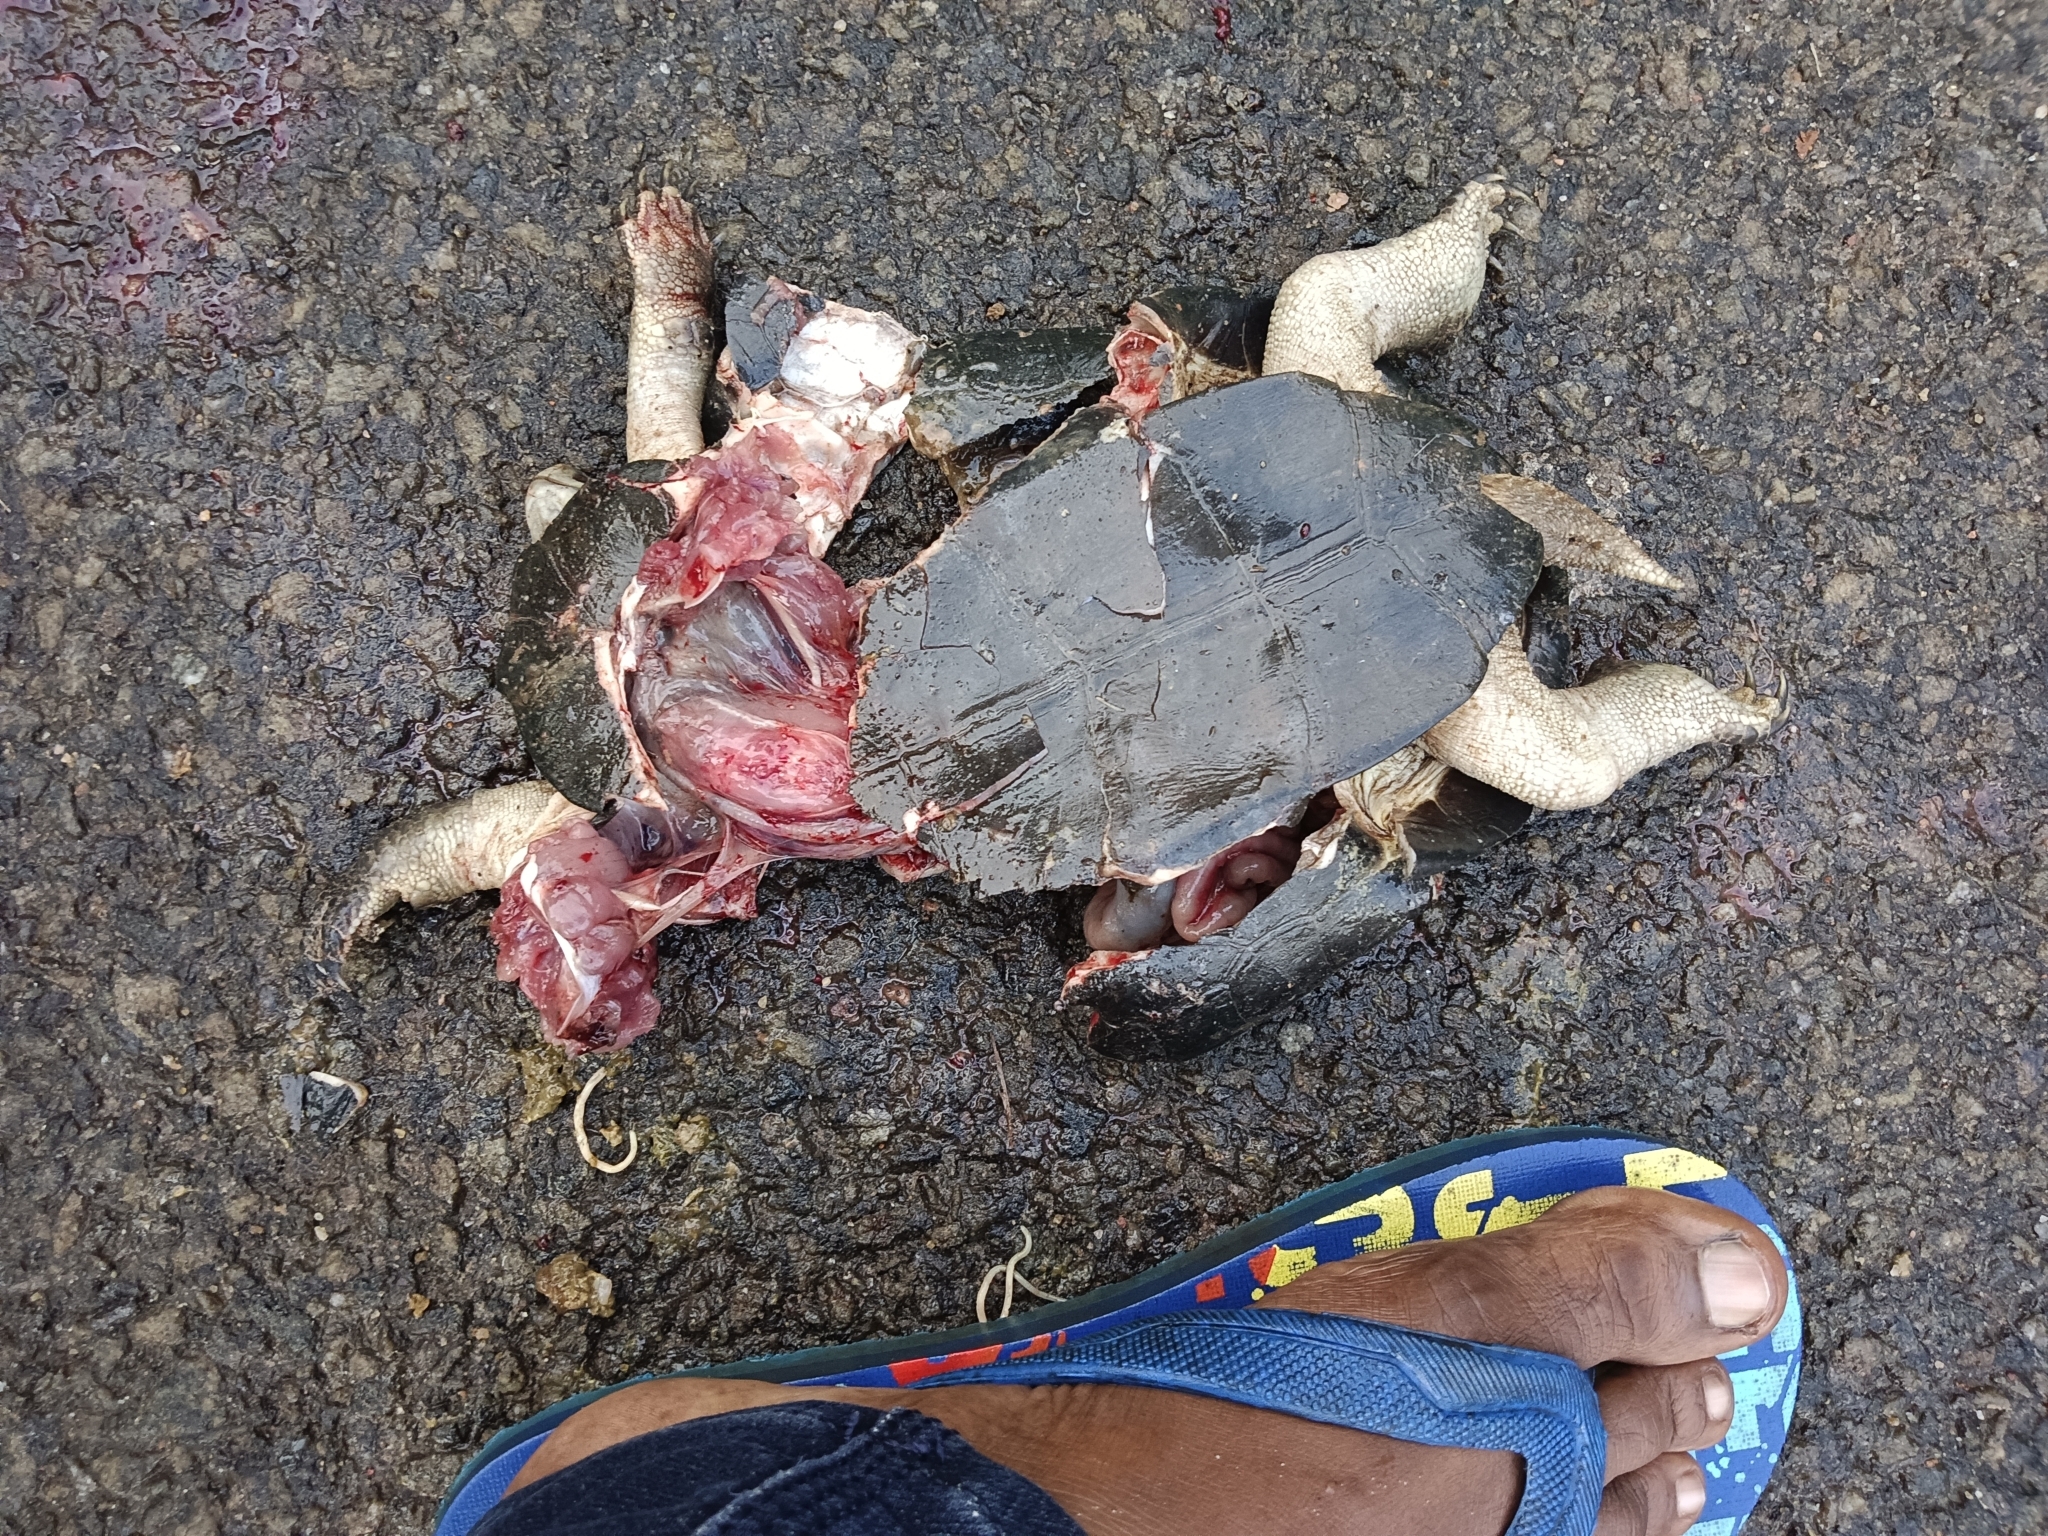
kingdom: Animalia
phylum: Chordata
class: Testudines
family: Geoemydidae
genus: Melanochelys
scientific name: Melanochelys trijuga
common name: Indian black turtle
